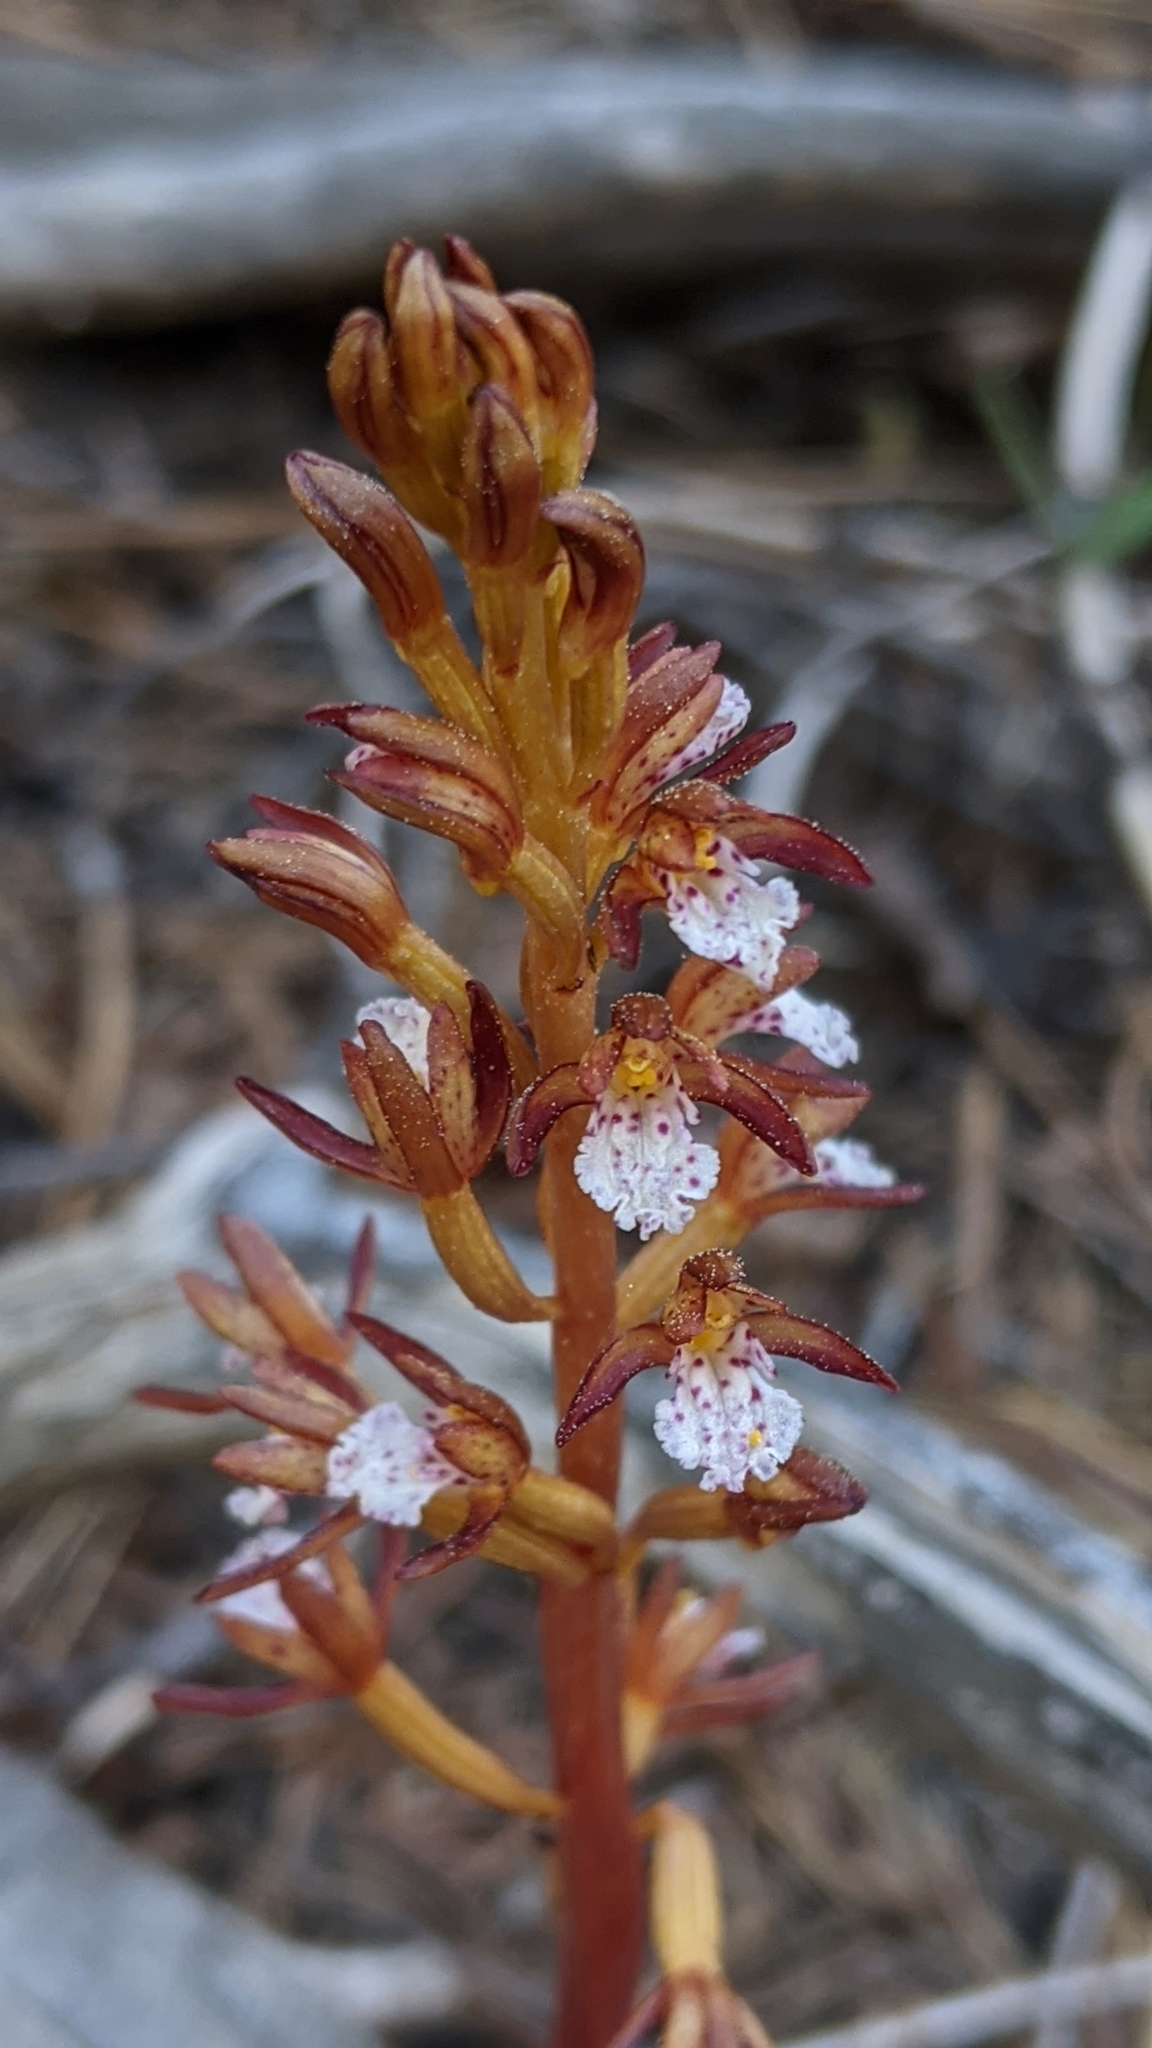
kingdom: Plantae
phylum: Tracheophyta
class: Liliopsida
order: Asparagales
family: Orchidaceae
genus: Corallorhiza
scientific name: Corallorhiza maculata
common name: Spotted coralroot
